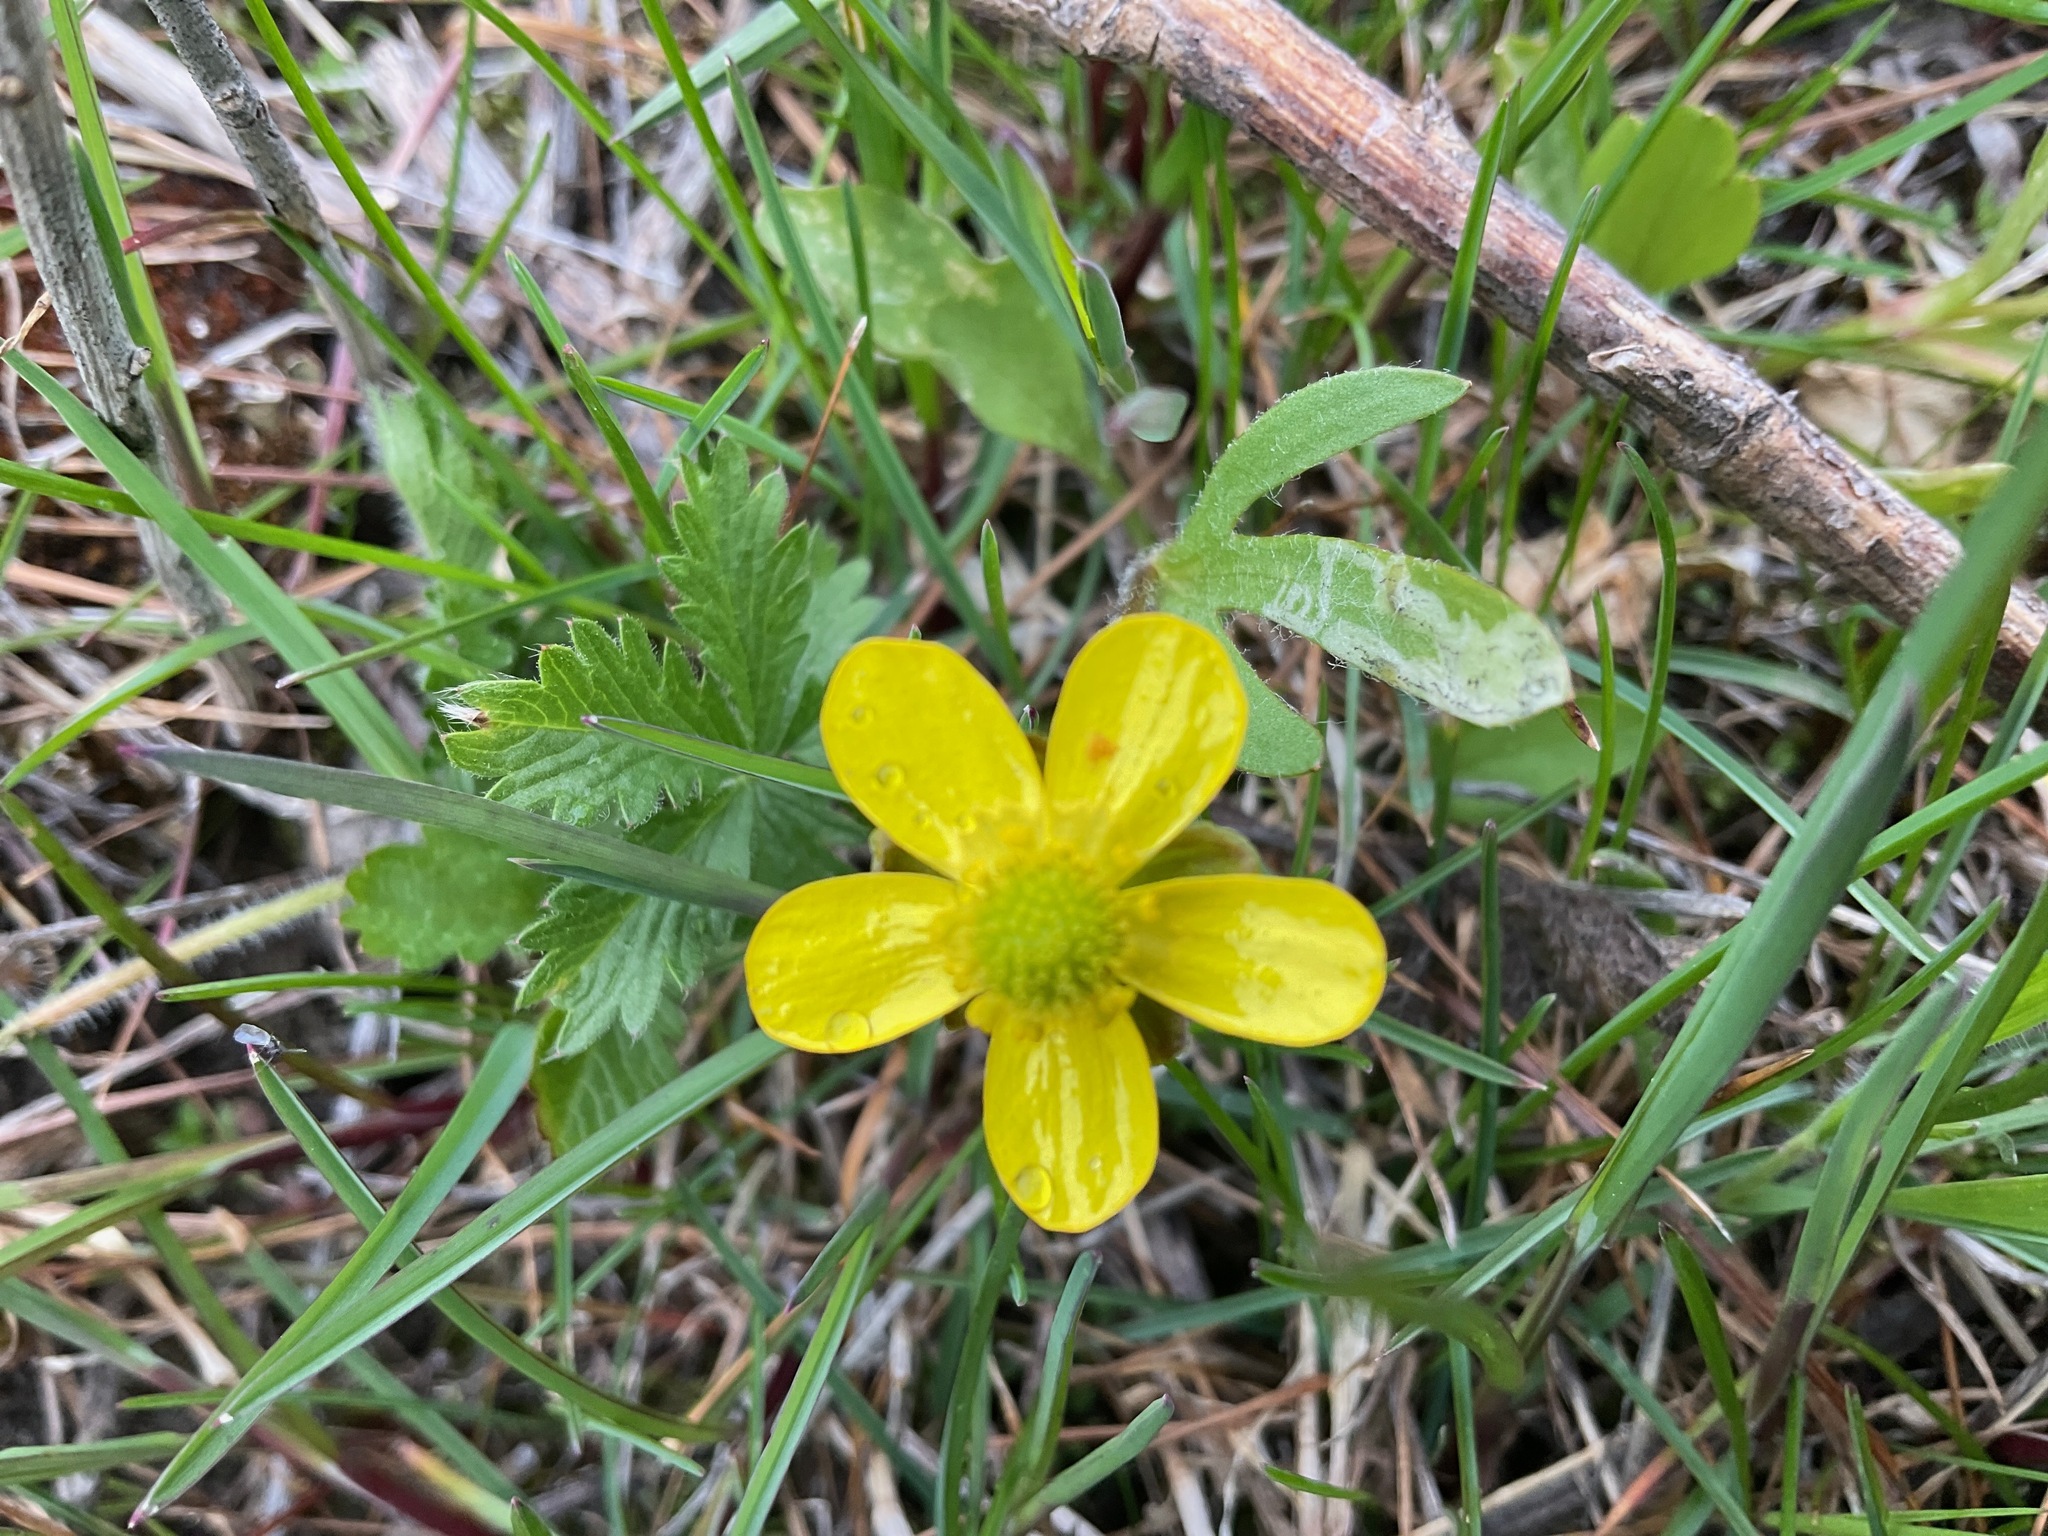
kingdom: Plantae
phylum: Tracheophyta
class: Magnoliopsida
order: Ranunculales
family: Ranunculaceae
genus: Ranunculus
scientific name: Ranunculus glaberrimus
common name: Sagebrush buttercup
